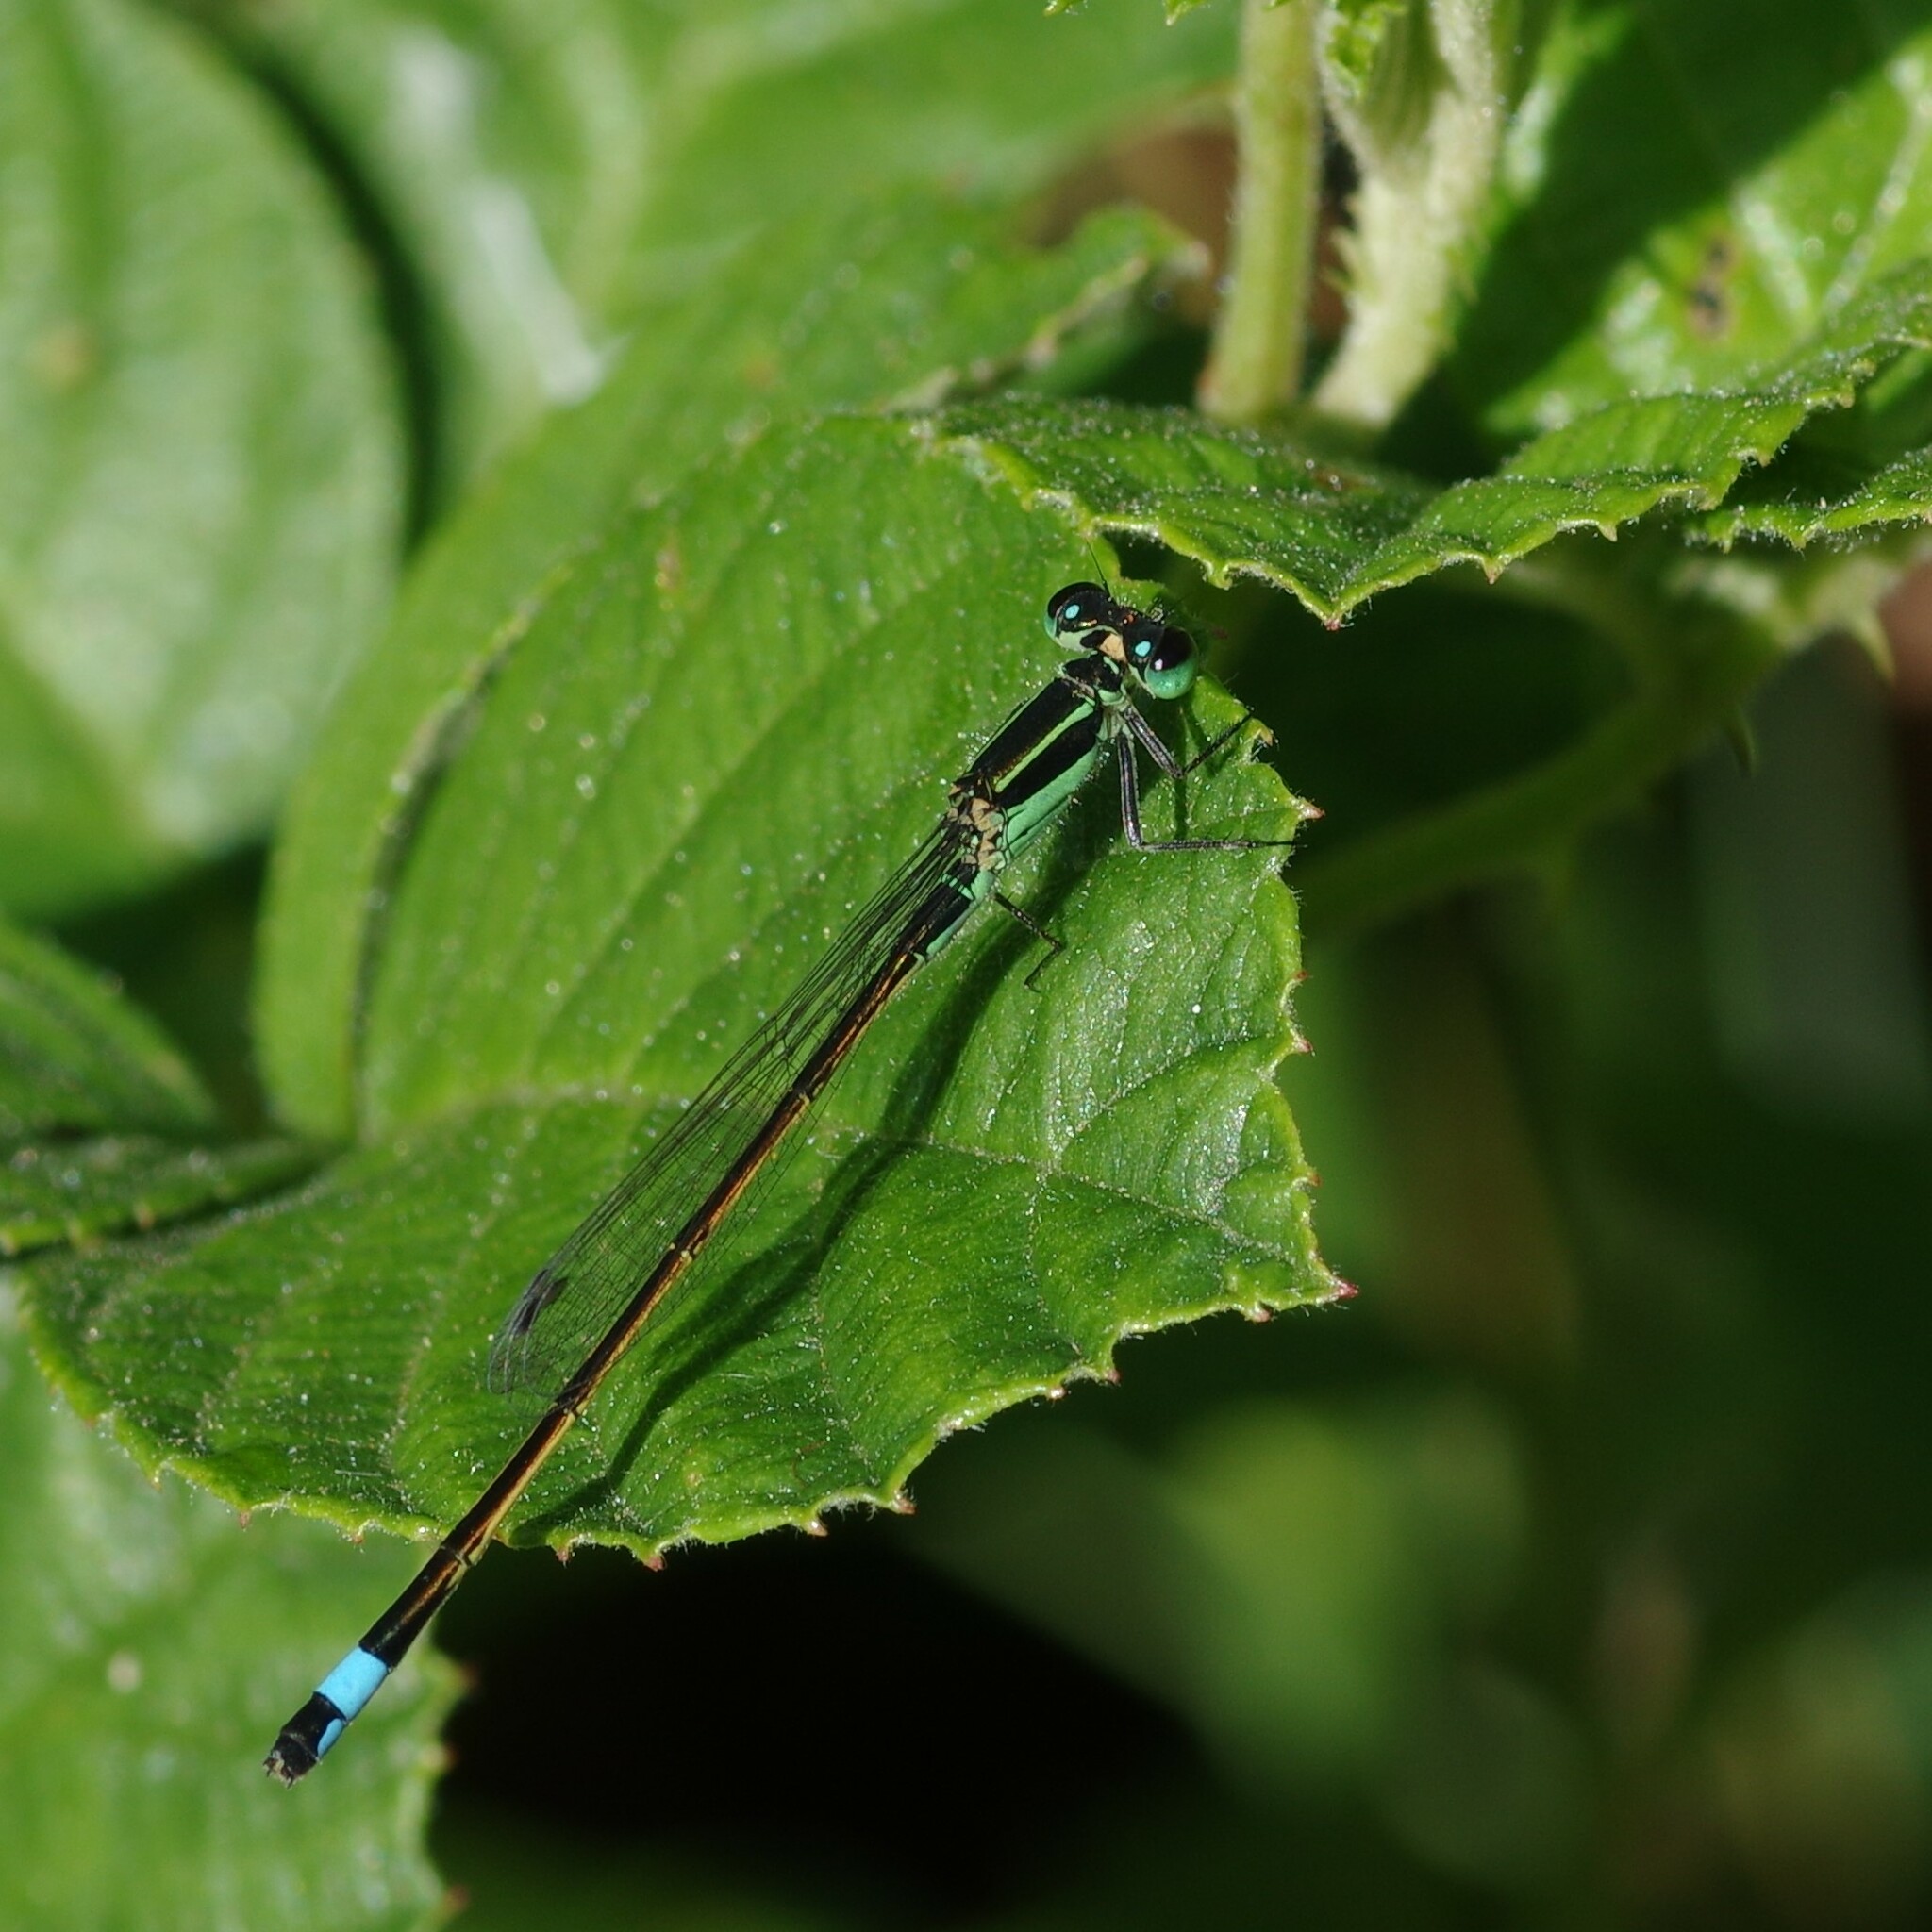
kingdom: Animalia
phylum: Arthropoda
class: Insecta
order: Odonata
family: Coenagrionidae
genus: Ischnura
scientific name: Ischnura ramburii
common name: Rambur's forktail
